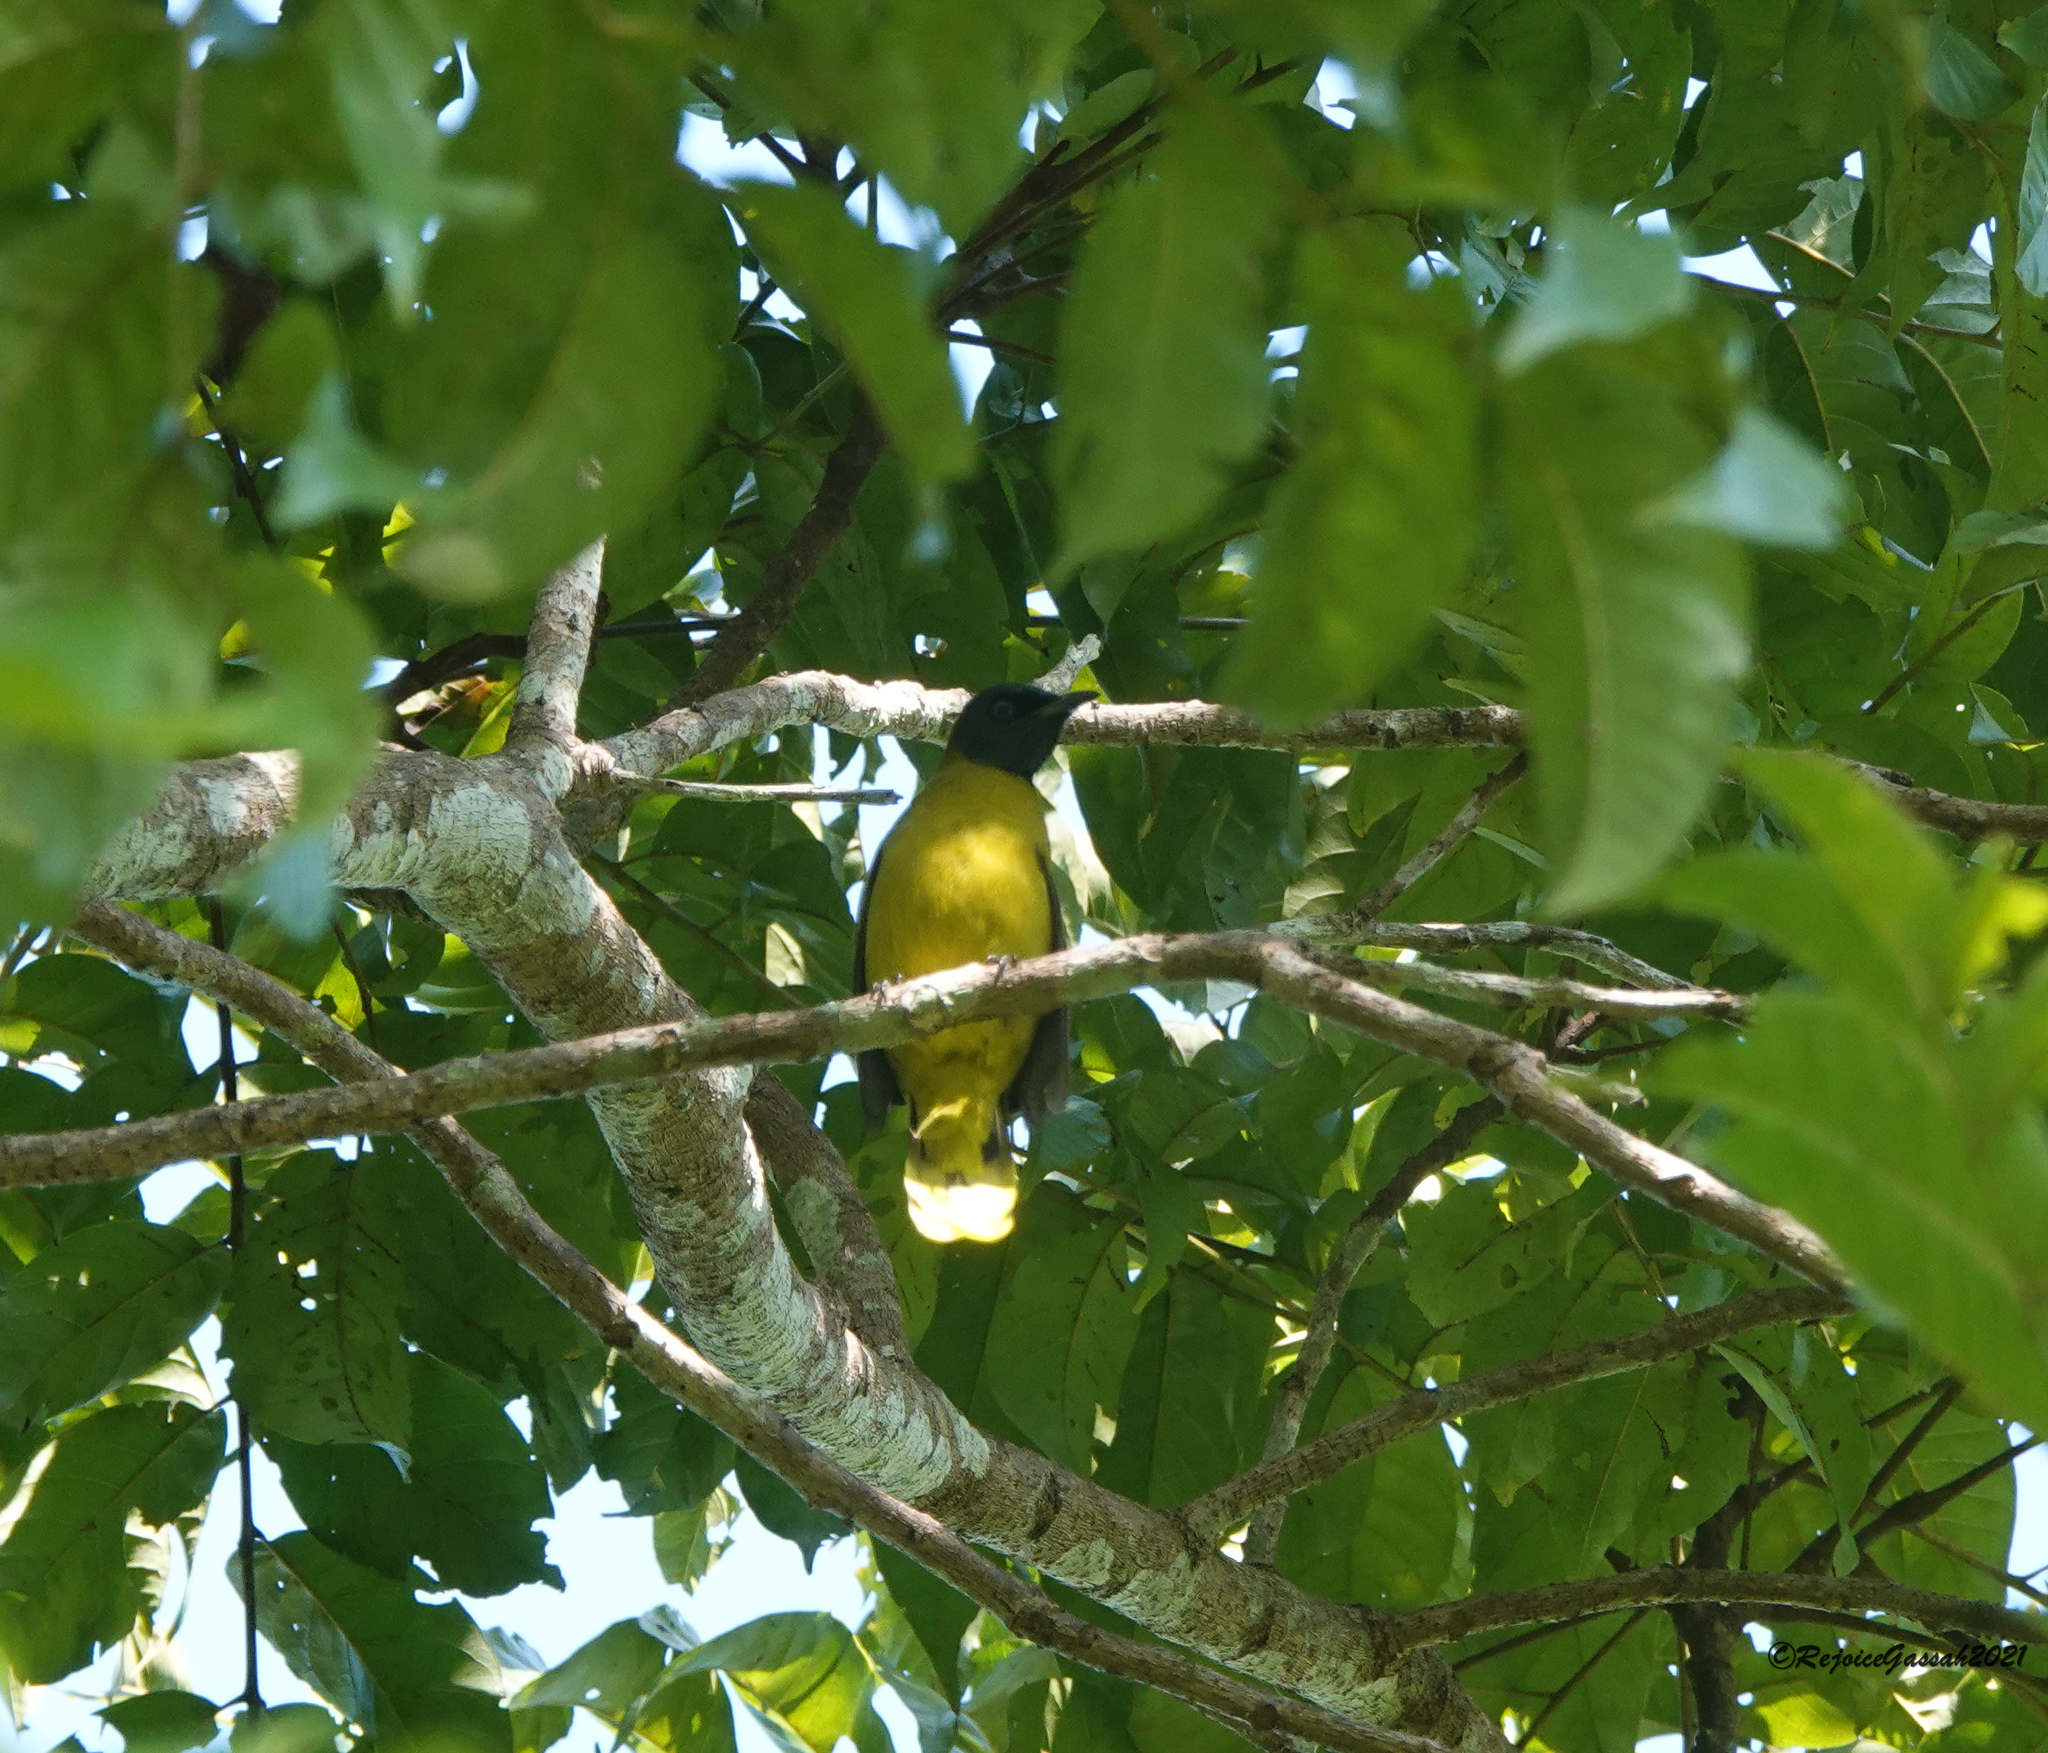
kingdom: Animalia
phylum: Chordata
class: Aves
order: Passeriformes
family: Pycnonotidae
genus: Microtarsus
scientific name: Microtarsus
